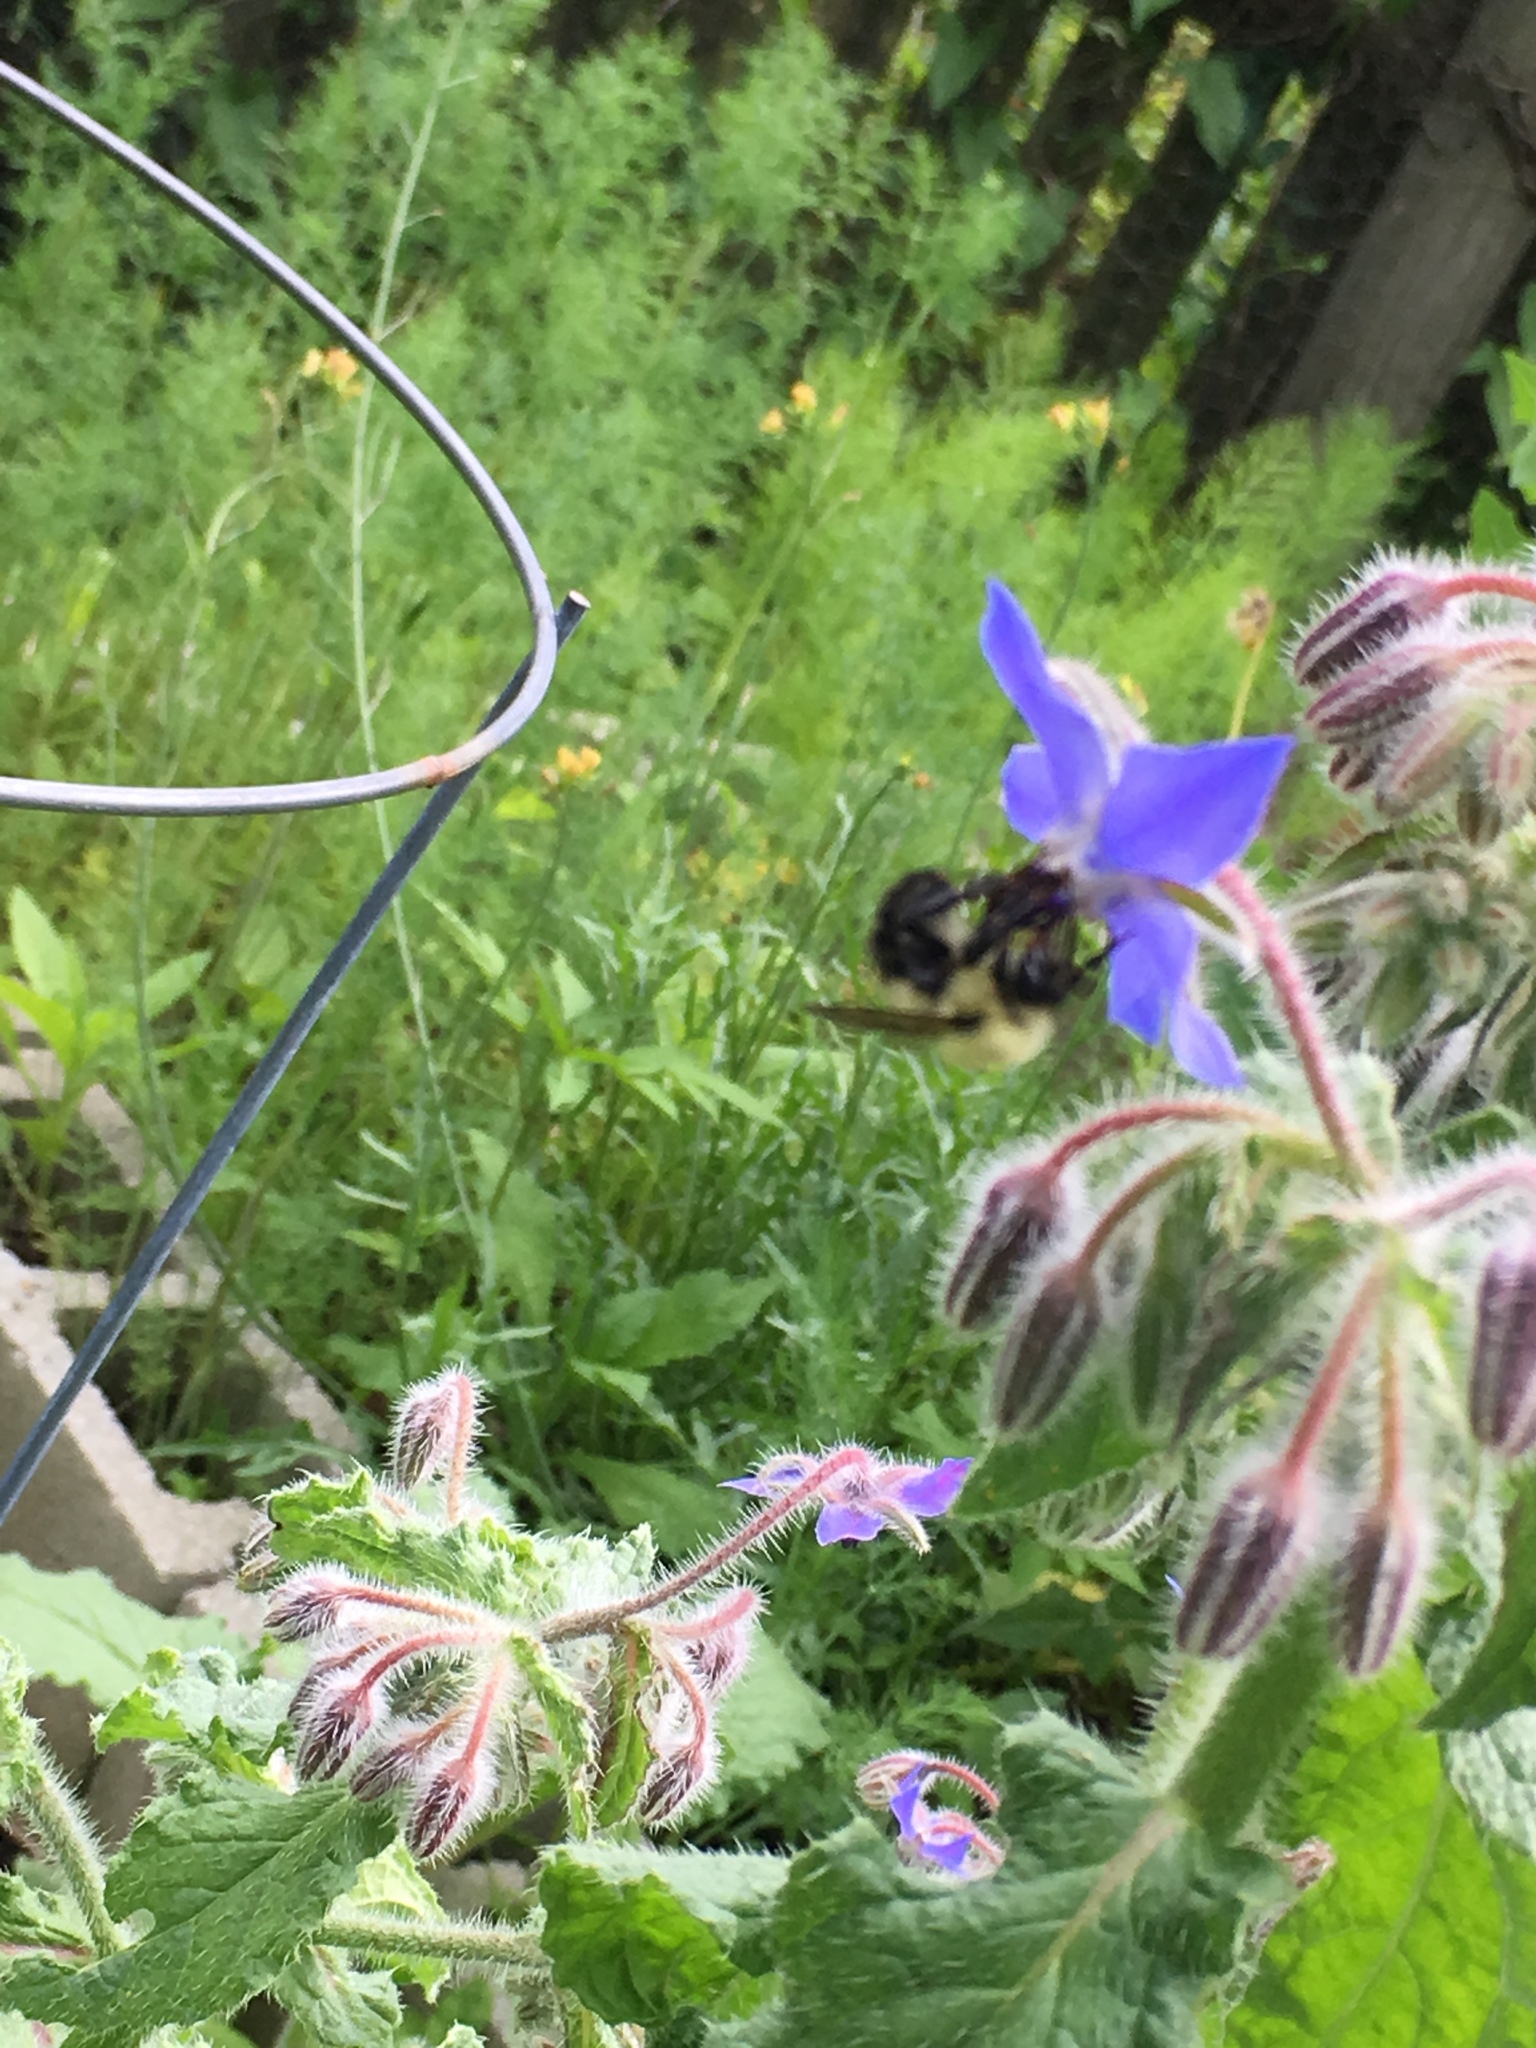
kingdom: Animalia
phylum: Arthropoda
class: Insecta
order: Hymenoptera
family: Apidae
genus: Bombus
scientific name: Bombus impatiens
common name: Common eastern bumble bee
